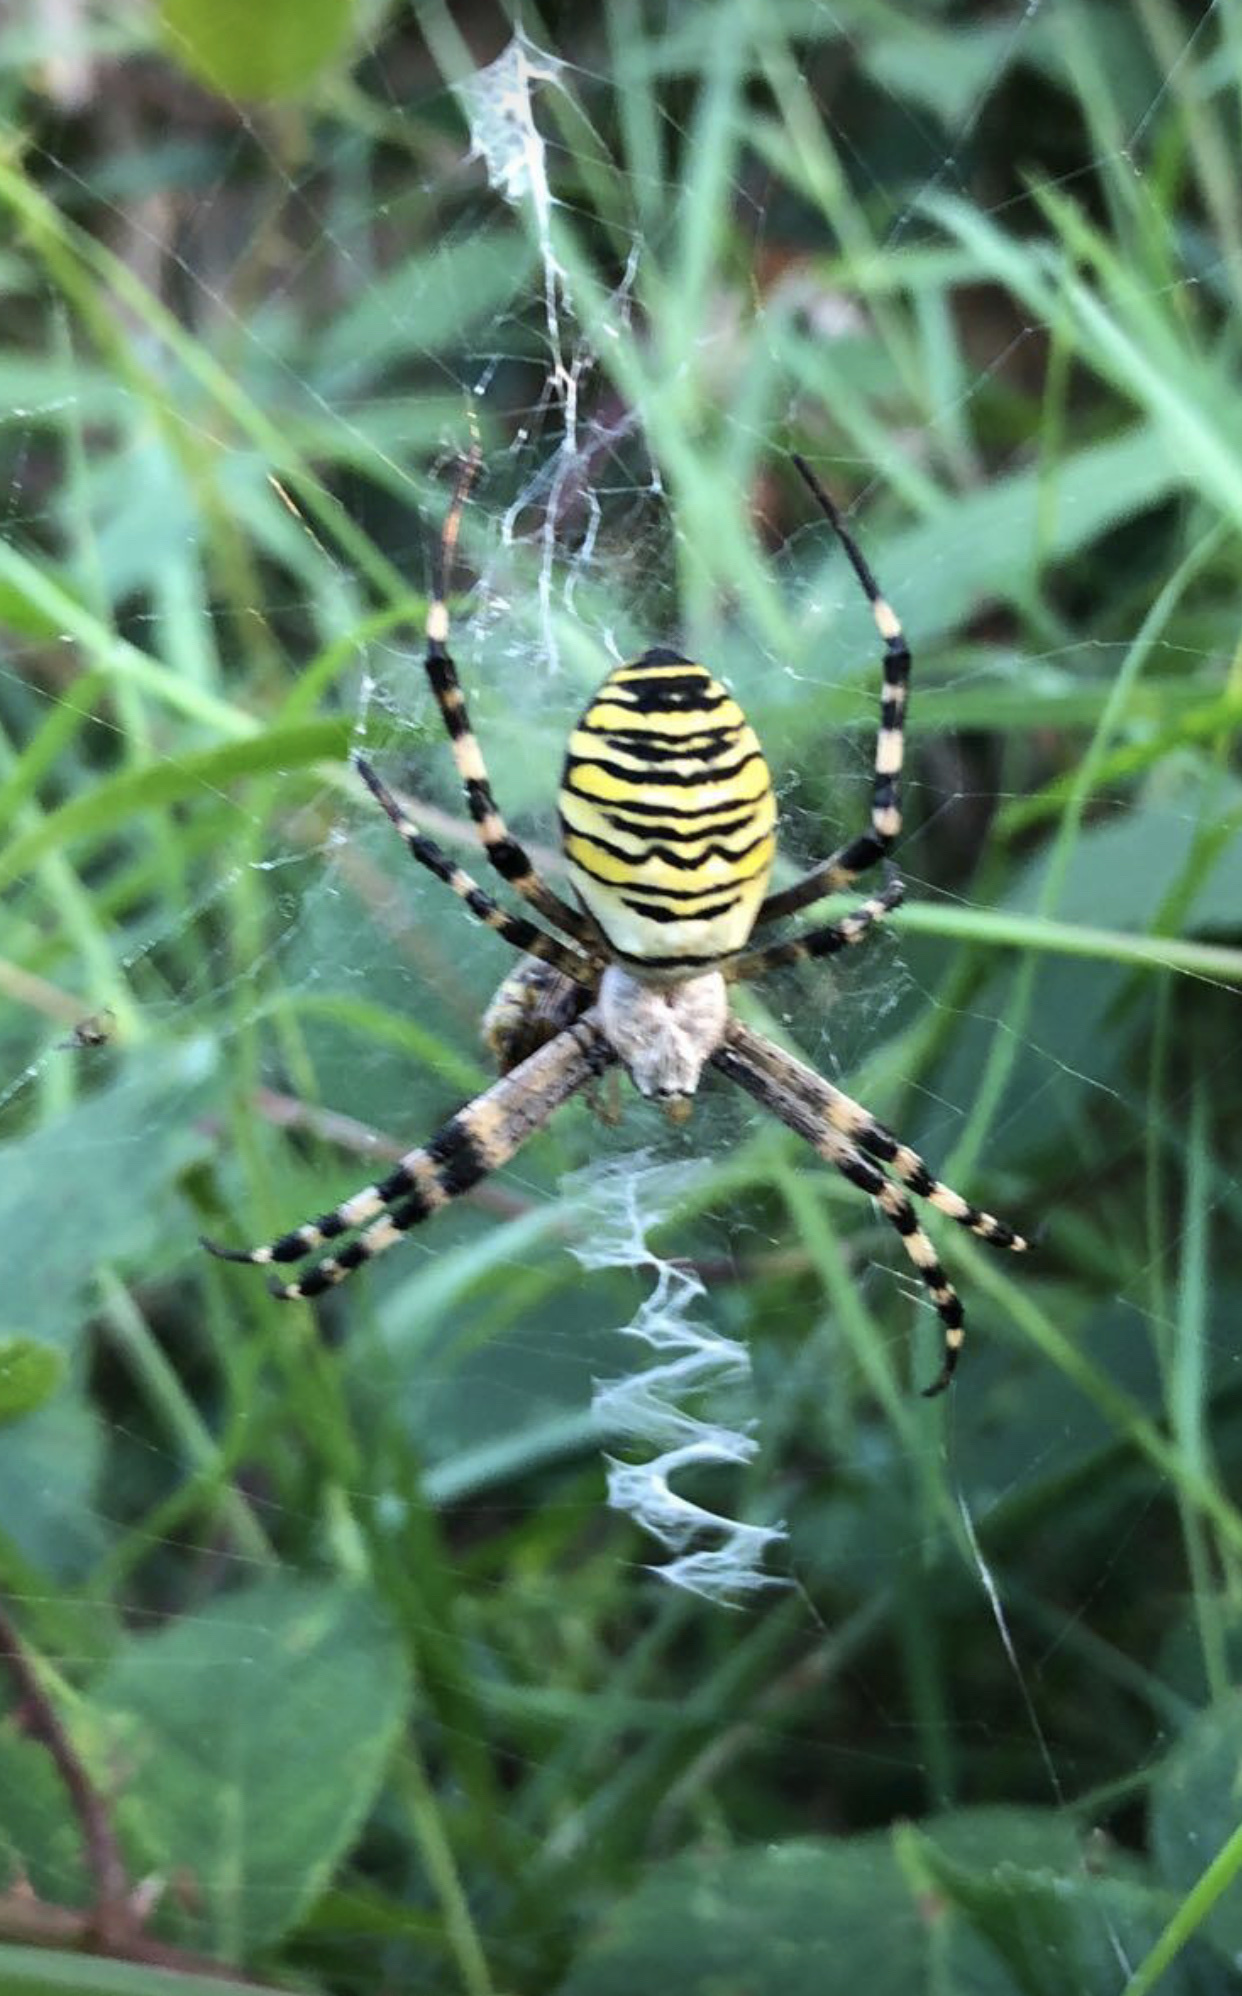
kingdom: Animalia
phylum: Arthropoda
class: Arachnida
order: Araneae
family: Araneidae
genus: Argiope
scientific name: Argiope bruennichi
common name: Wasp spider
